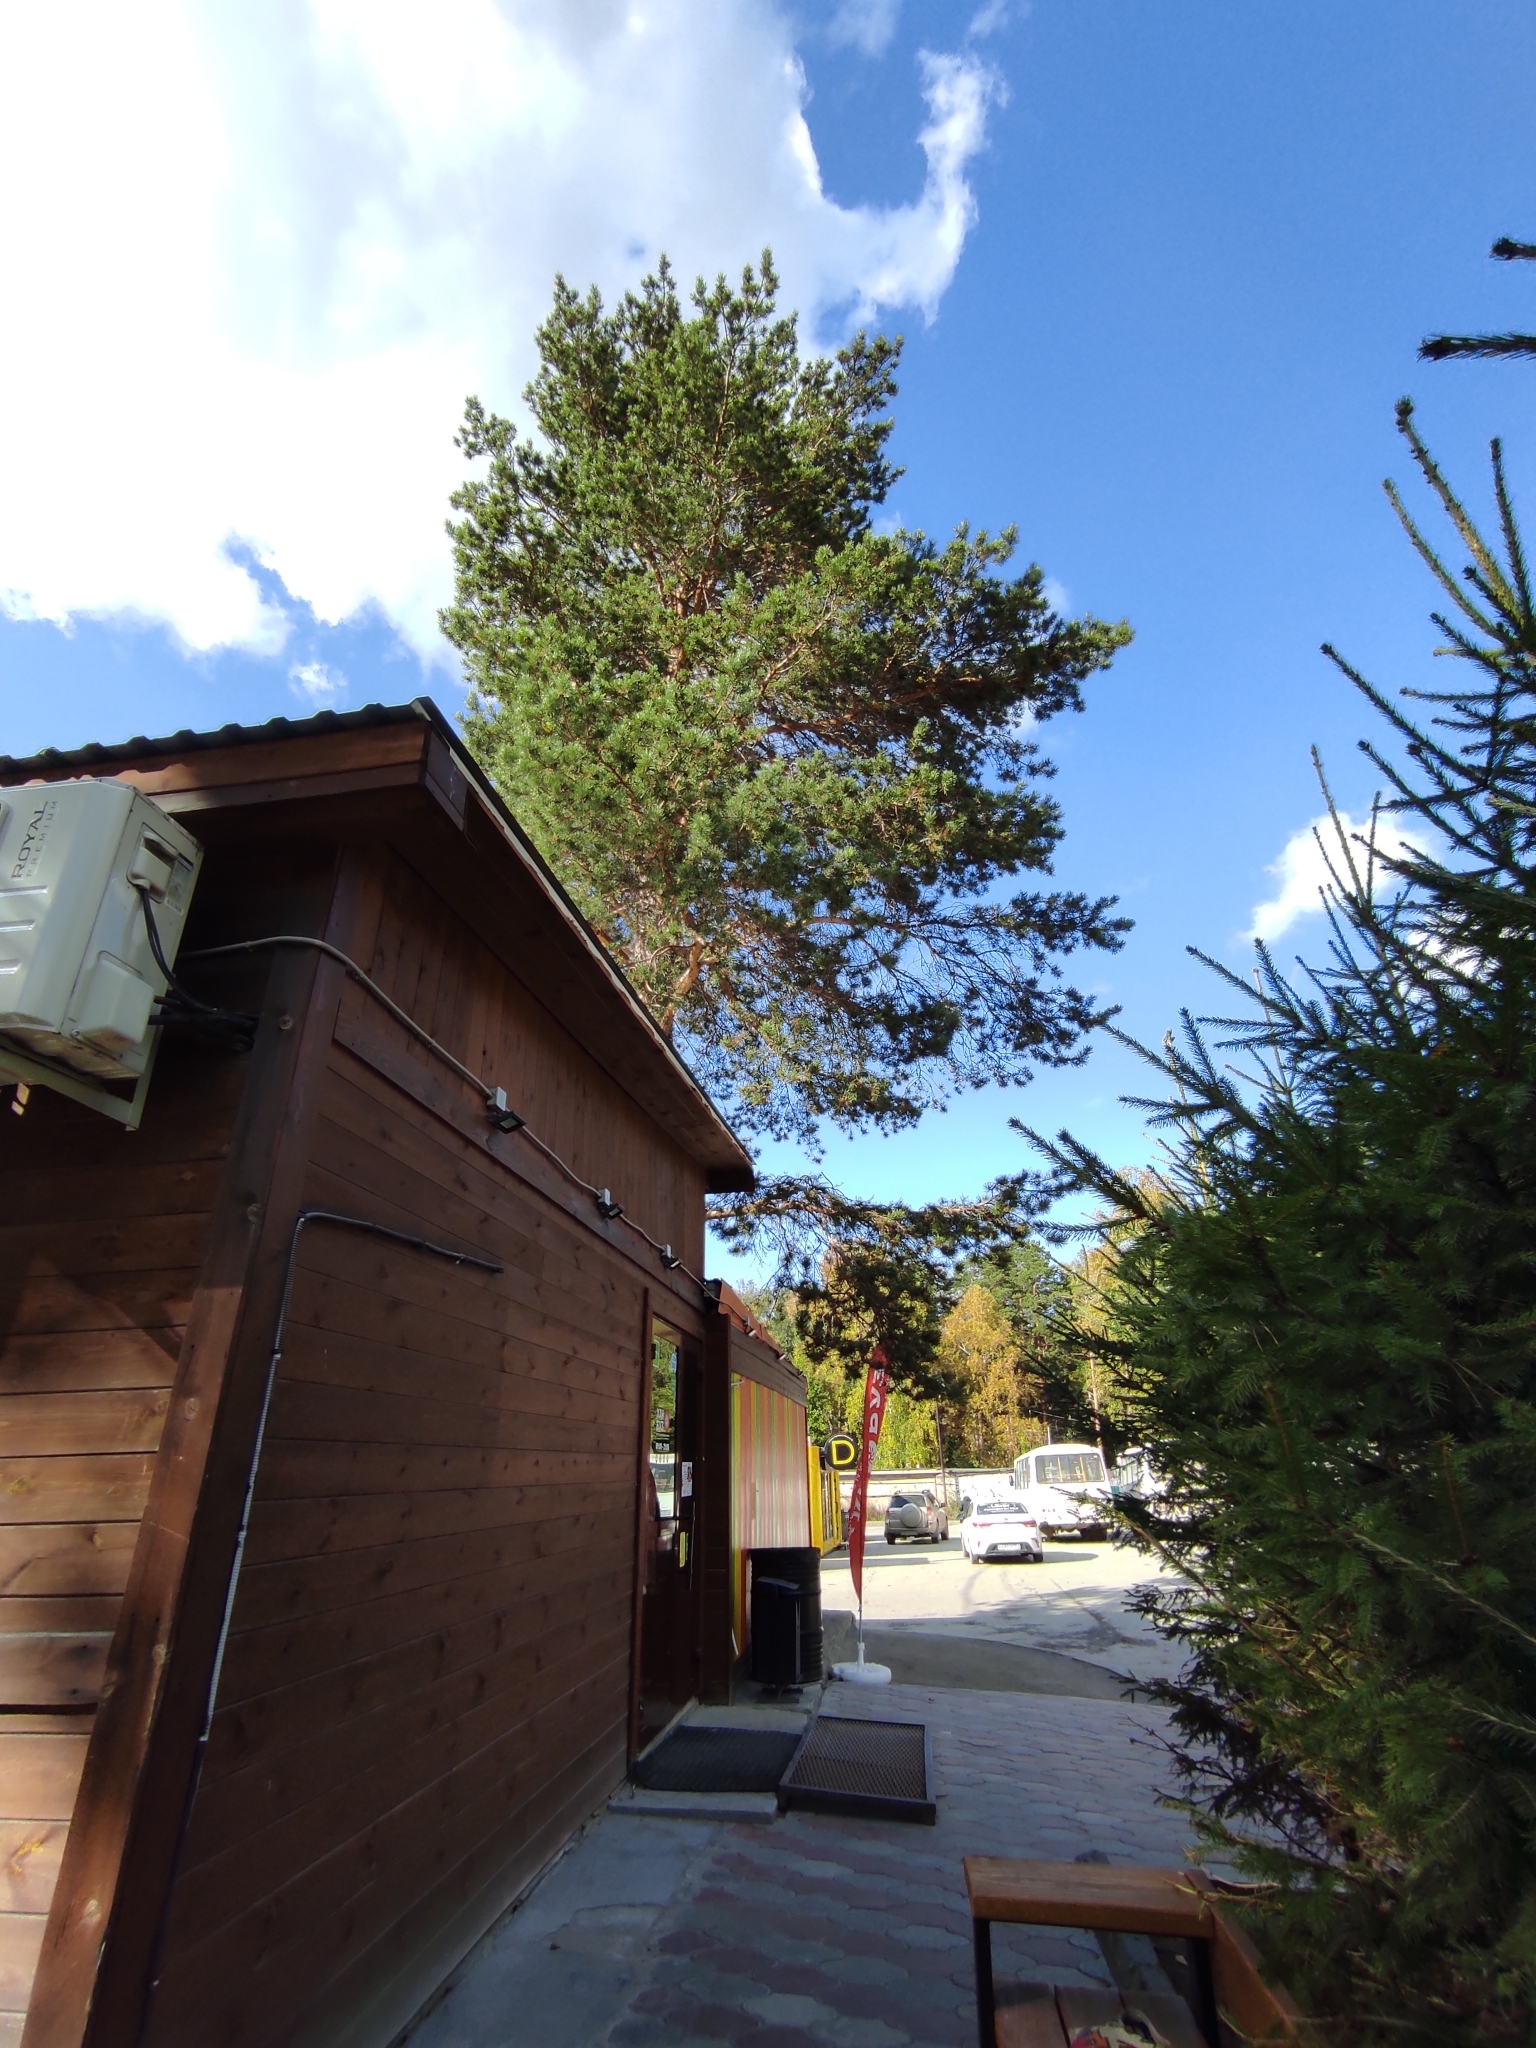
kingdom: Plantae
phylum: Tracheophyta
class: Pinopsida
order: Pinales
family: Pinaceae
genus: Pinus
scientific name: Pinus sylvestris
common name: Scots pine
